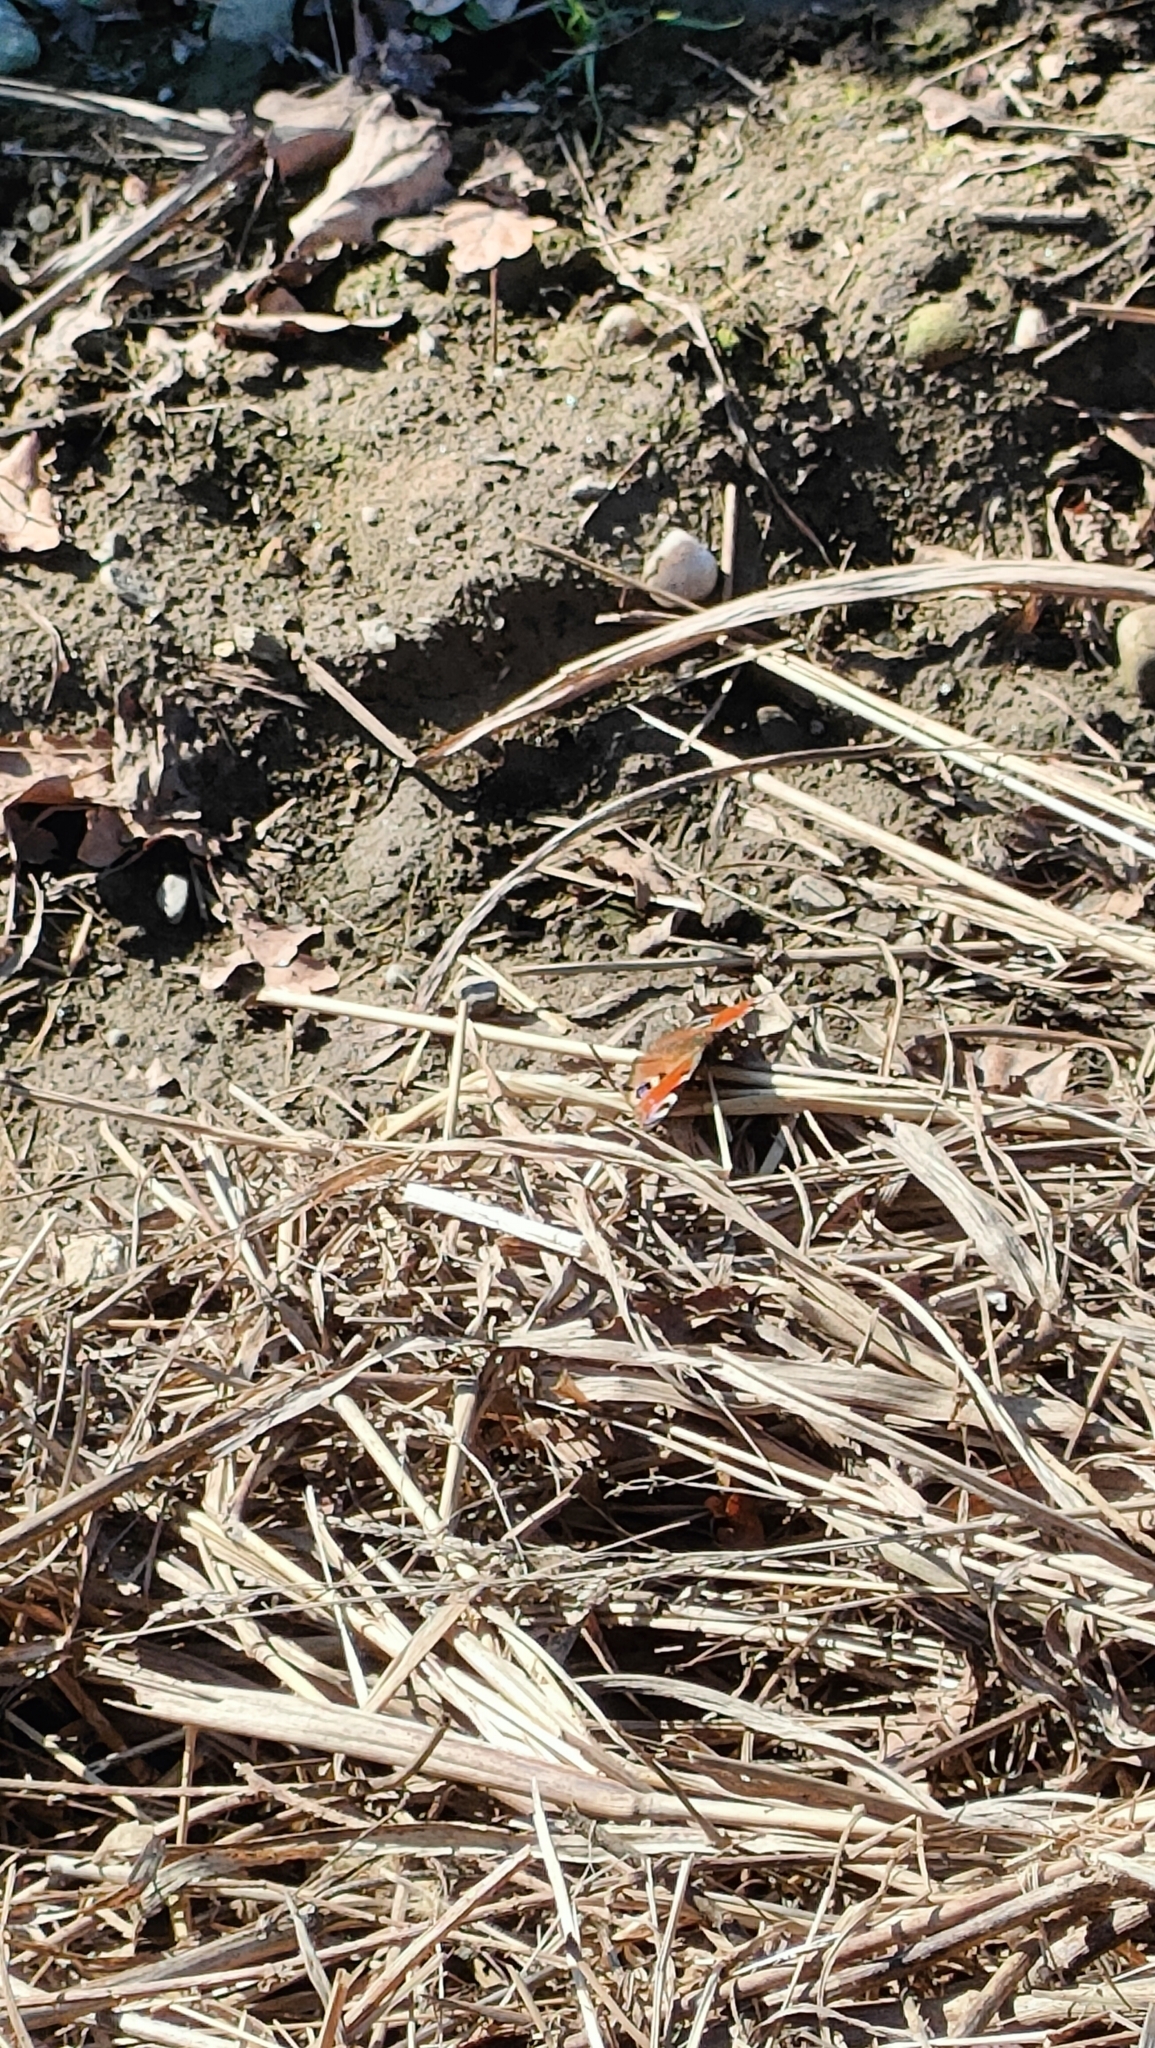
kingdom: Animalia
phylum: Arthropoda
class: Insecta
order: Lepidoptera
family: Nymphalidae
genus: Aglais
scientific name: Aglais io
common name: Peacock
